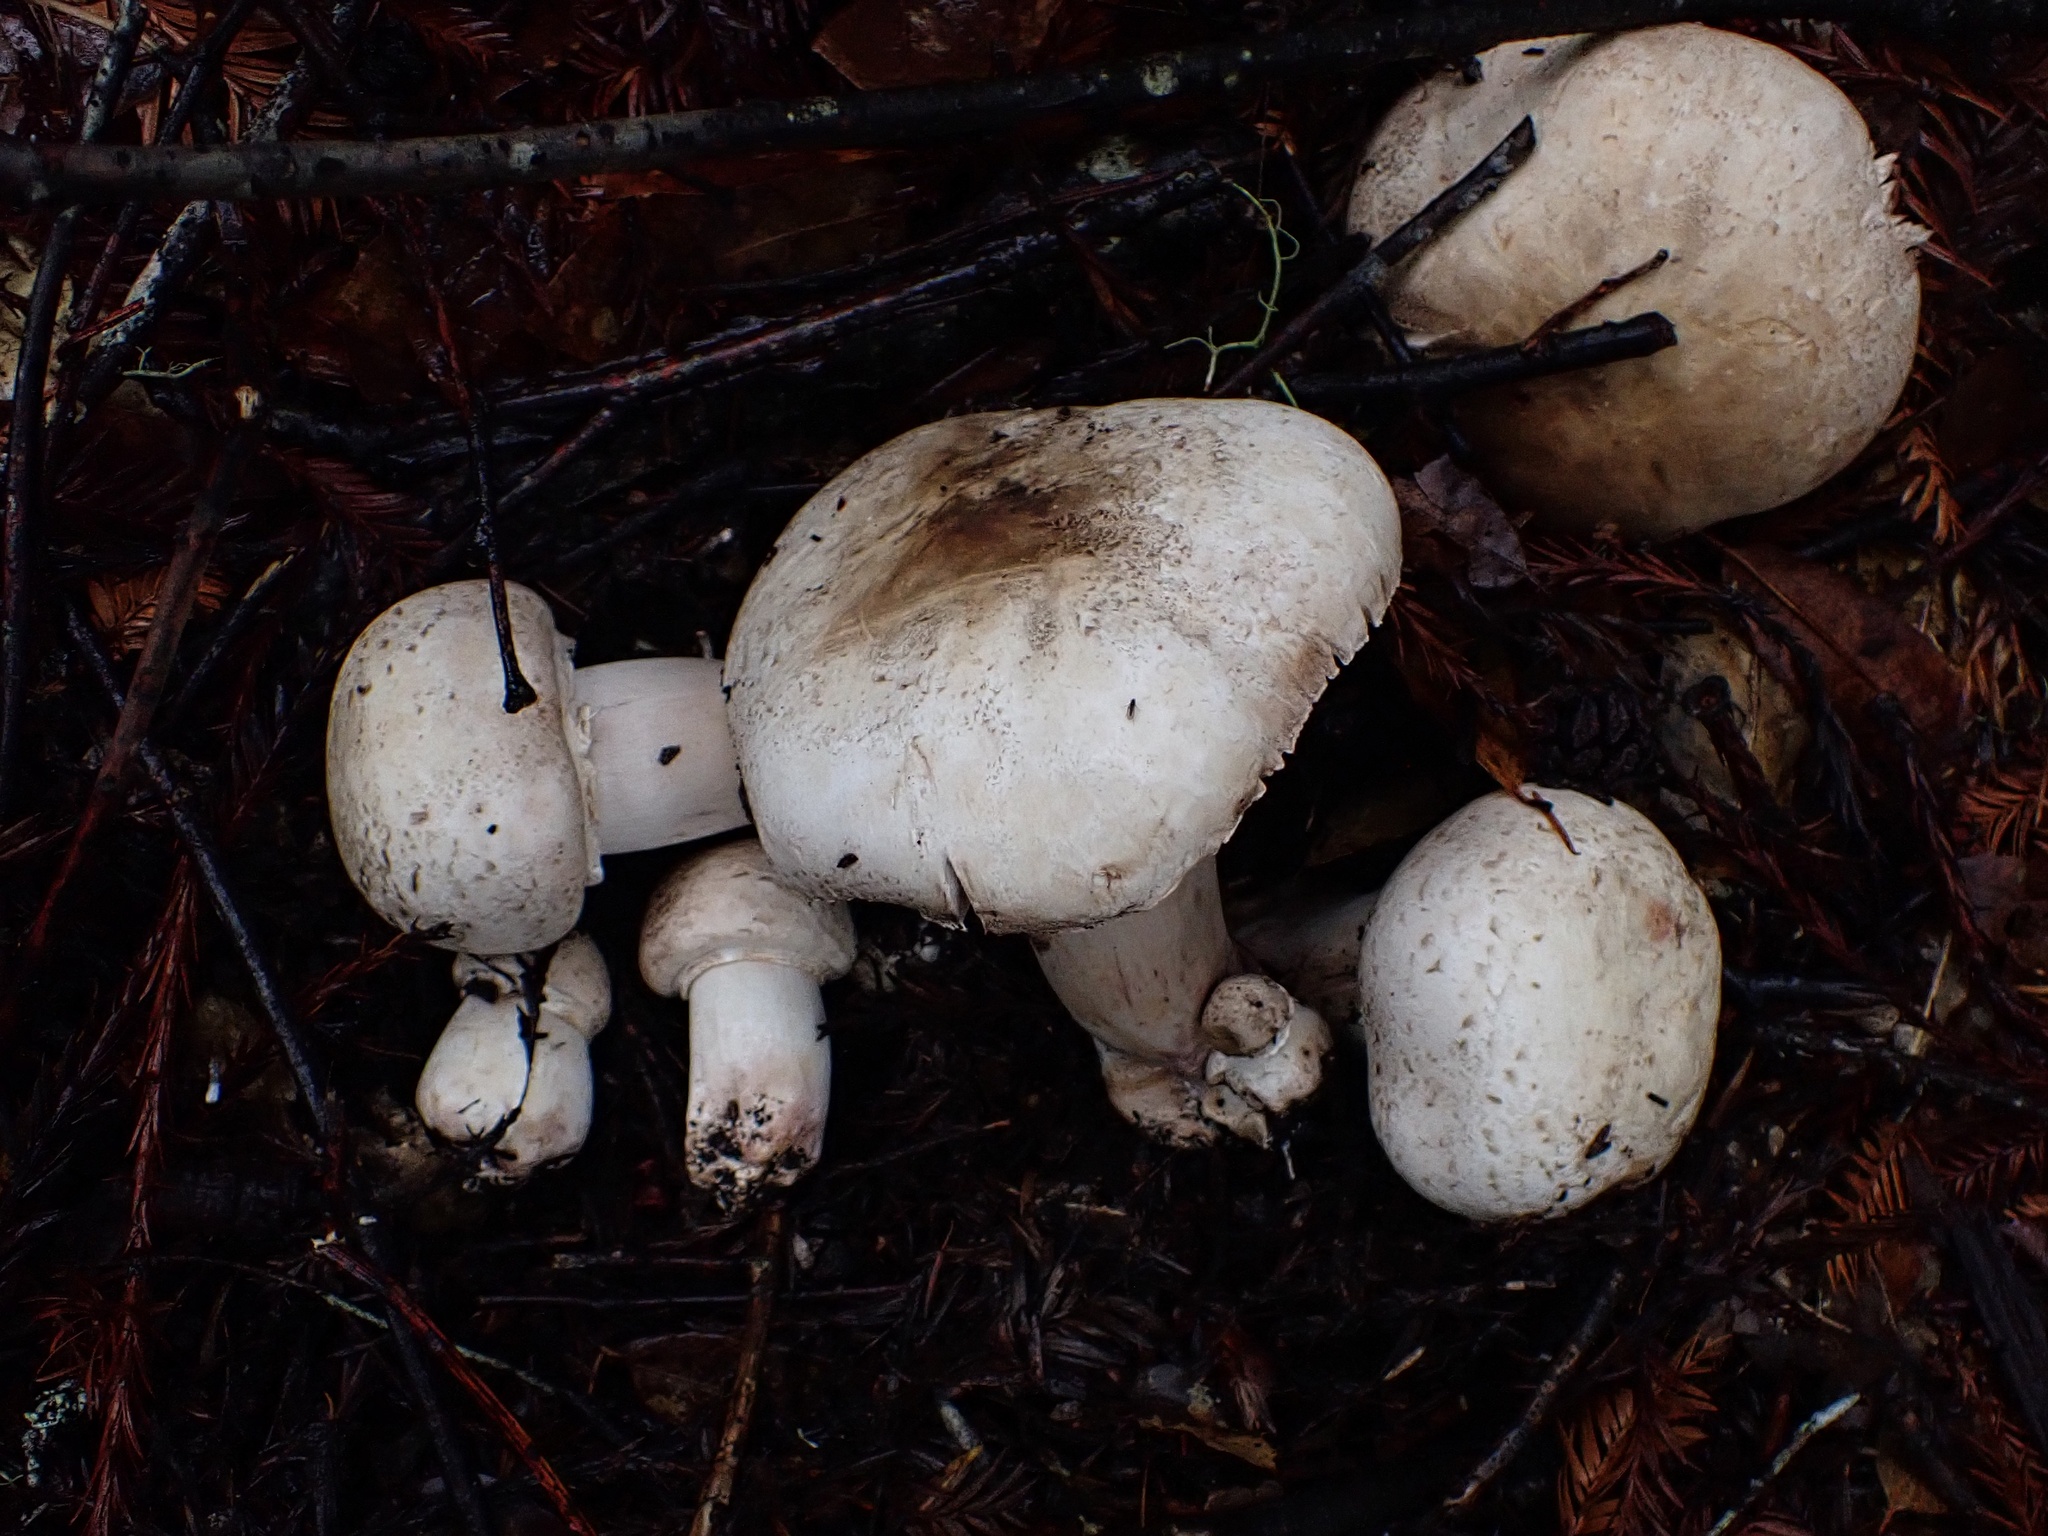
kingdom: Fungi
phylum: Basidiomycota
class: Agaricomycetes
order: Agaricales
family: Agaricaceae
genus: Leucoagaricus
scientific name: Leucoagaricus barssii
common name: Smoky dapperling
